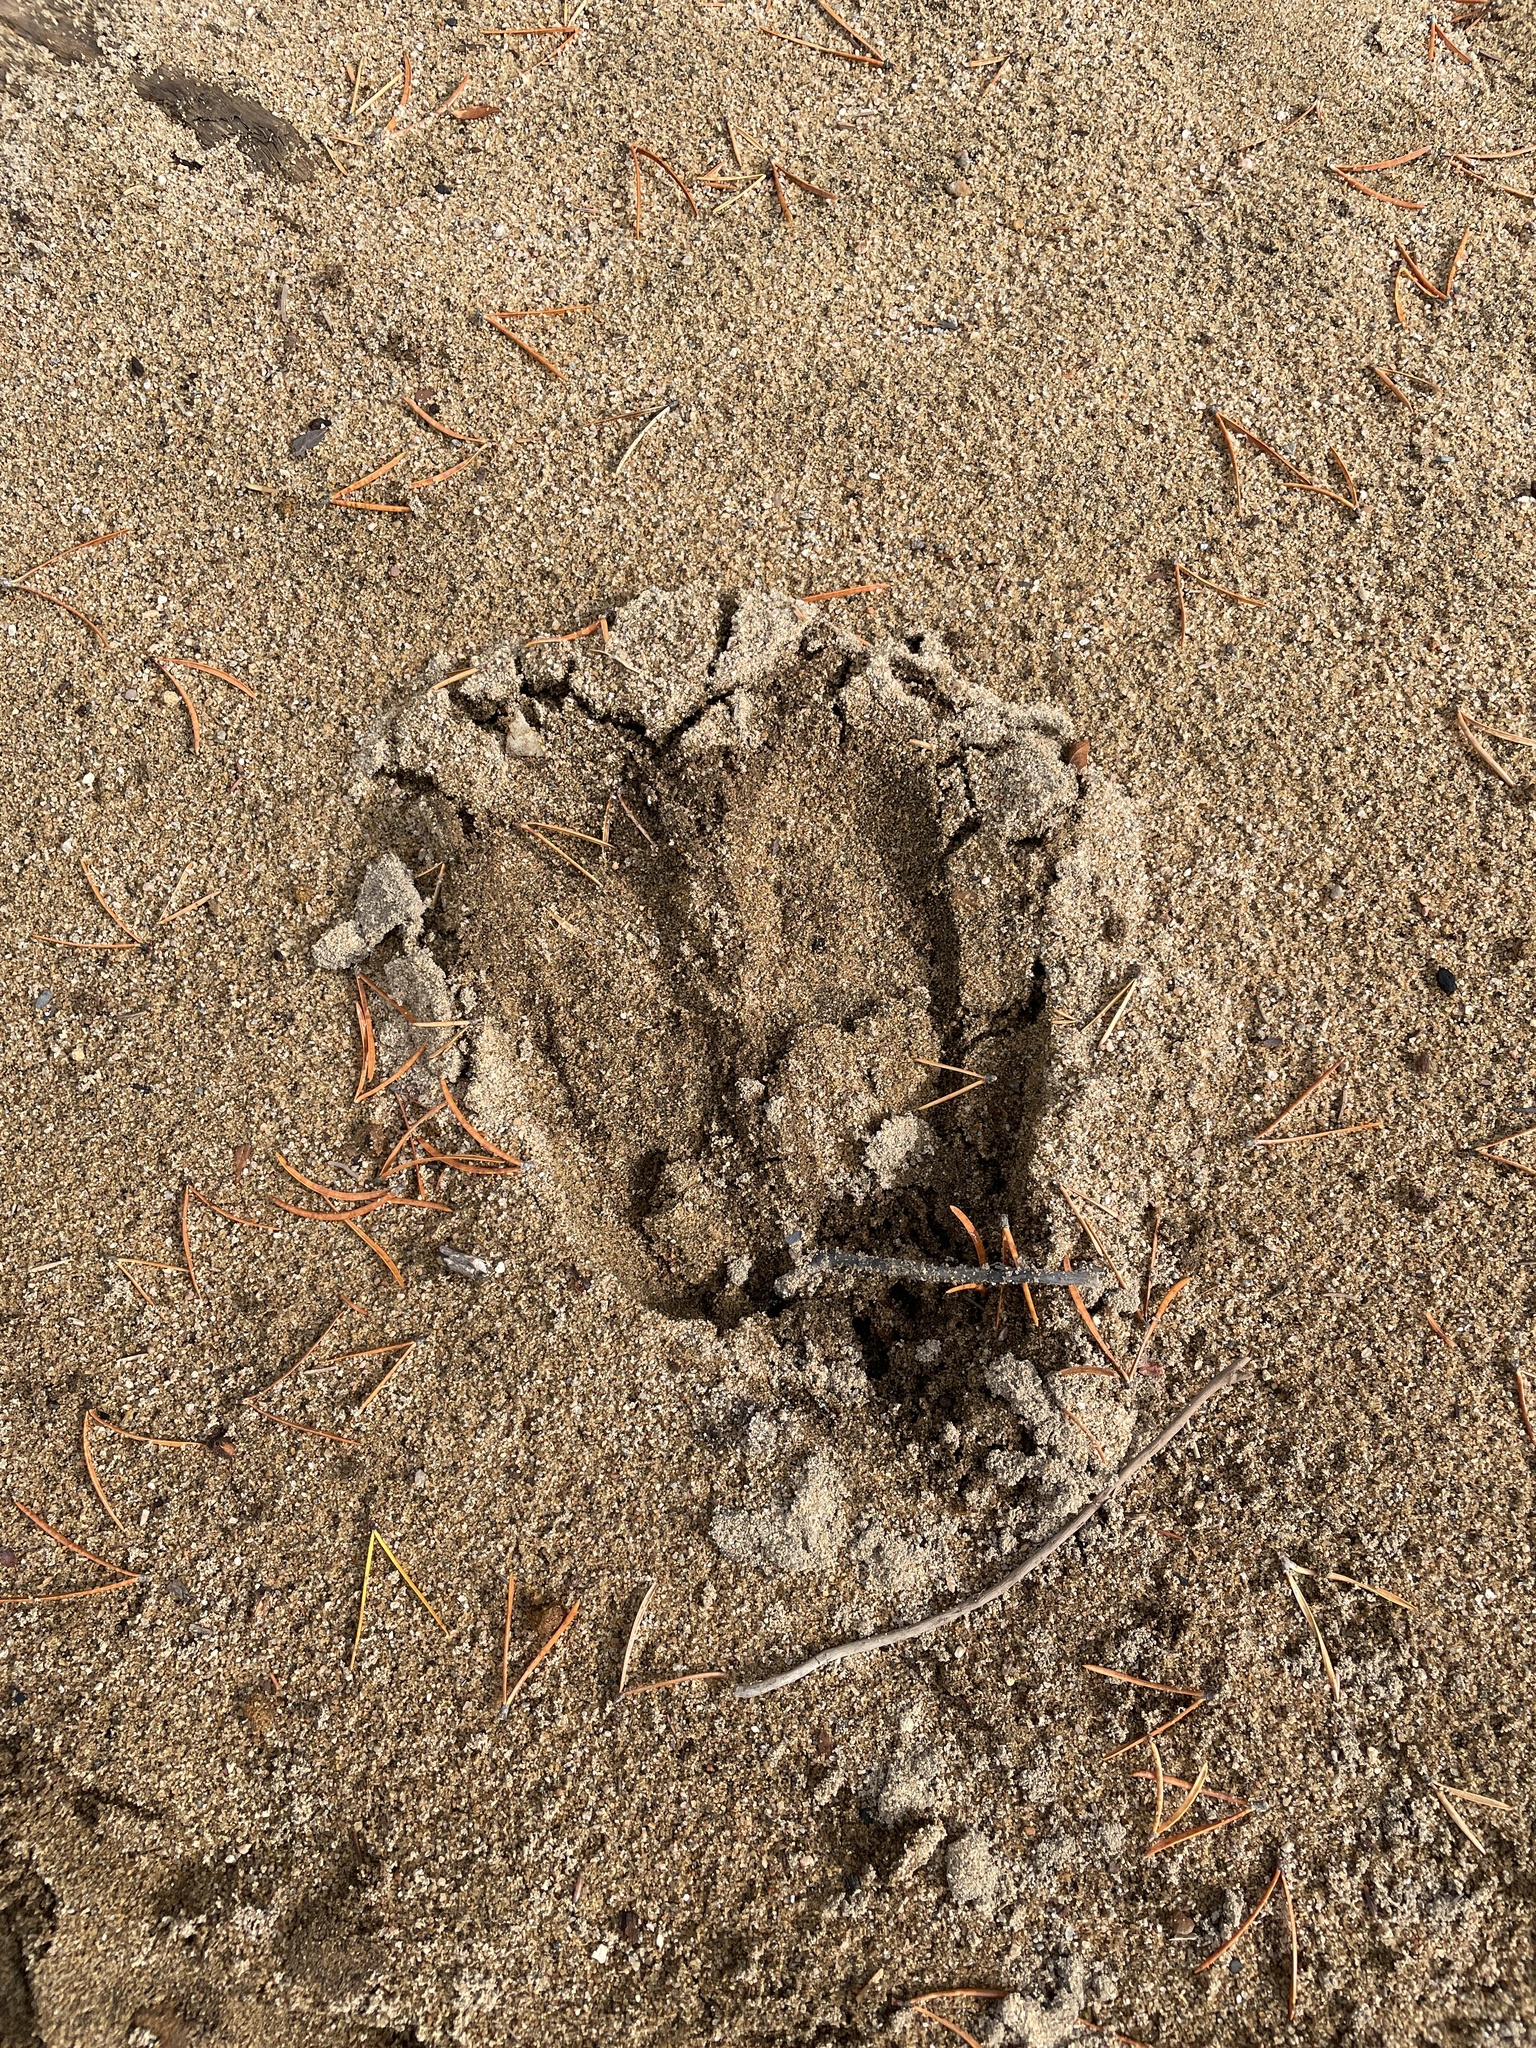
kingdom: Animalia
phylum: Chordata
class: Mammalia
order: Artiodactyla
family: Cervidae
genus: Alces
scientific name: Alces alces
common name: Moose
